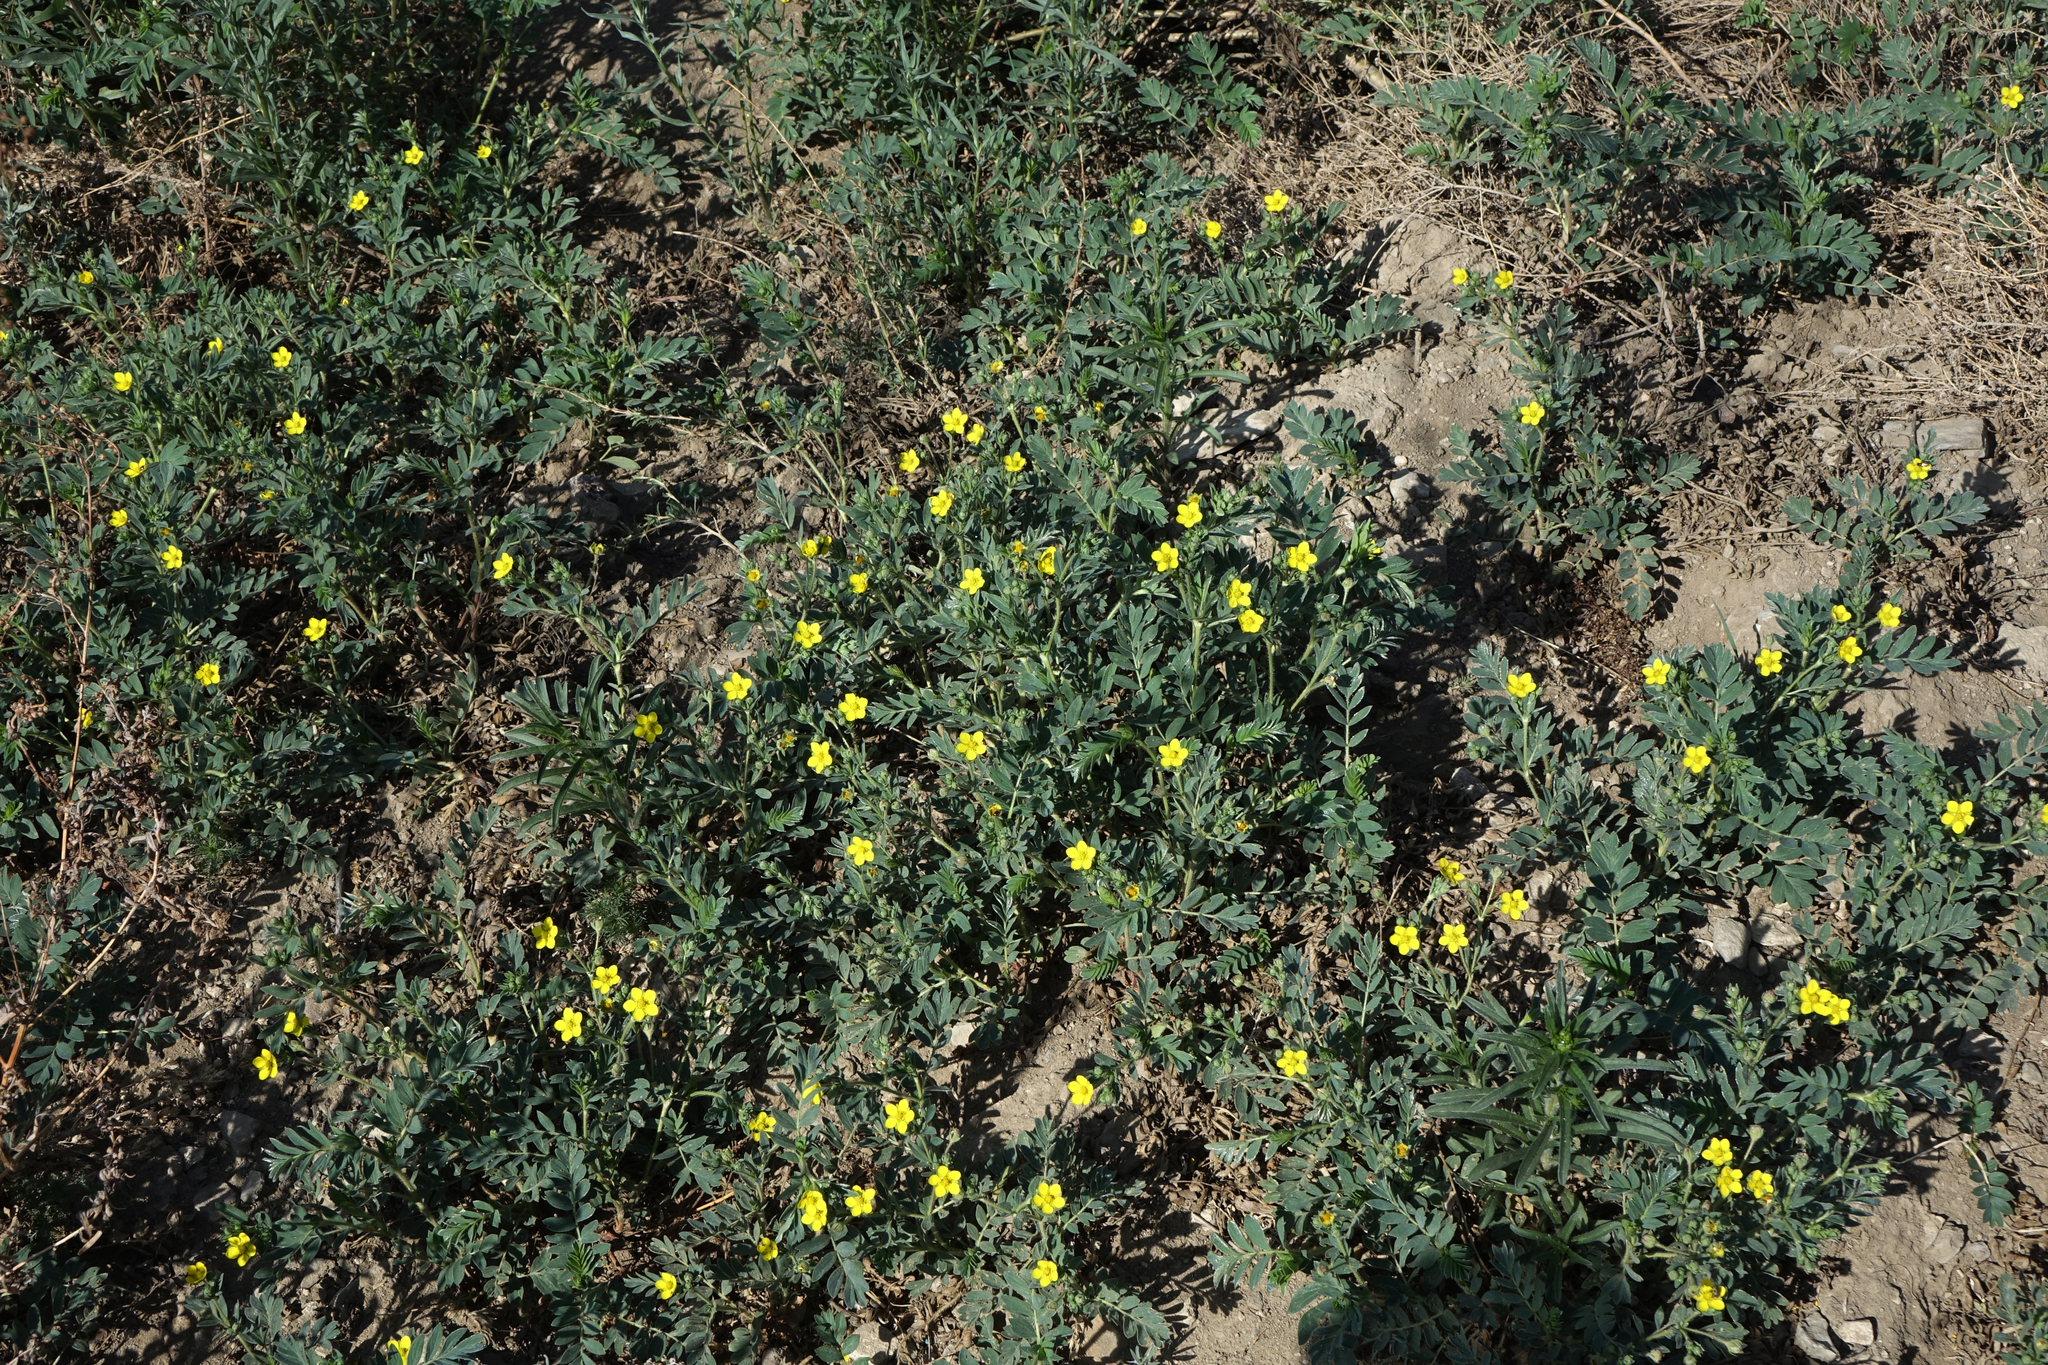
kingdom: Plantae
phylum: Tracheophyta
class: Magnoliopsida
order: Rosales
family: Rosaceae
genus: Sibbaldianthe
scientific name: Sibbaldianthe bifurca
